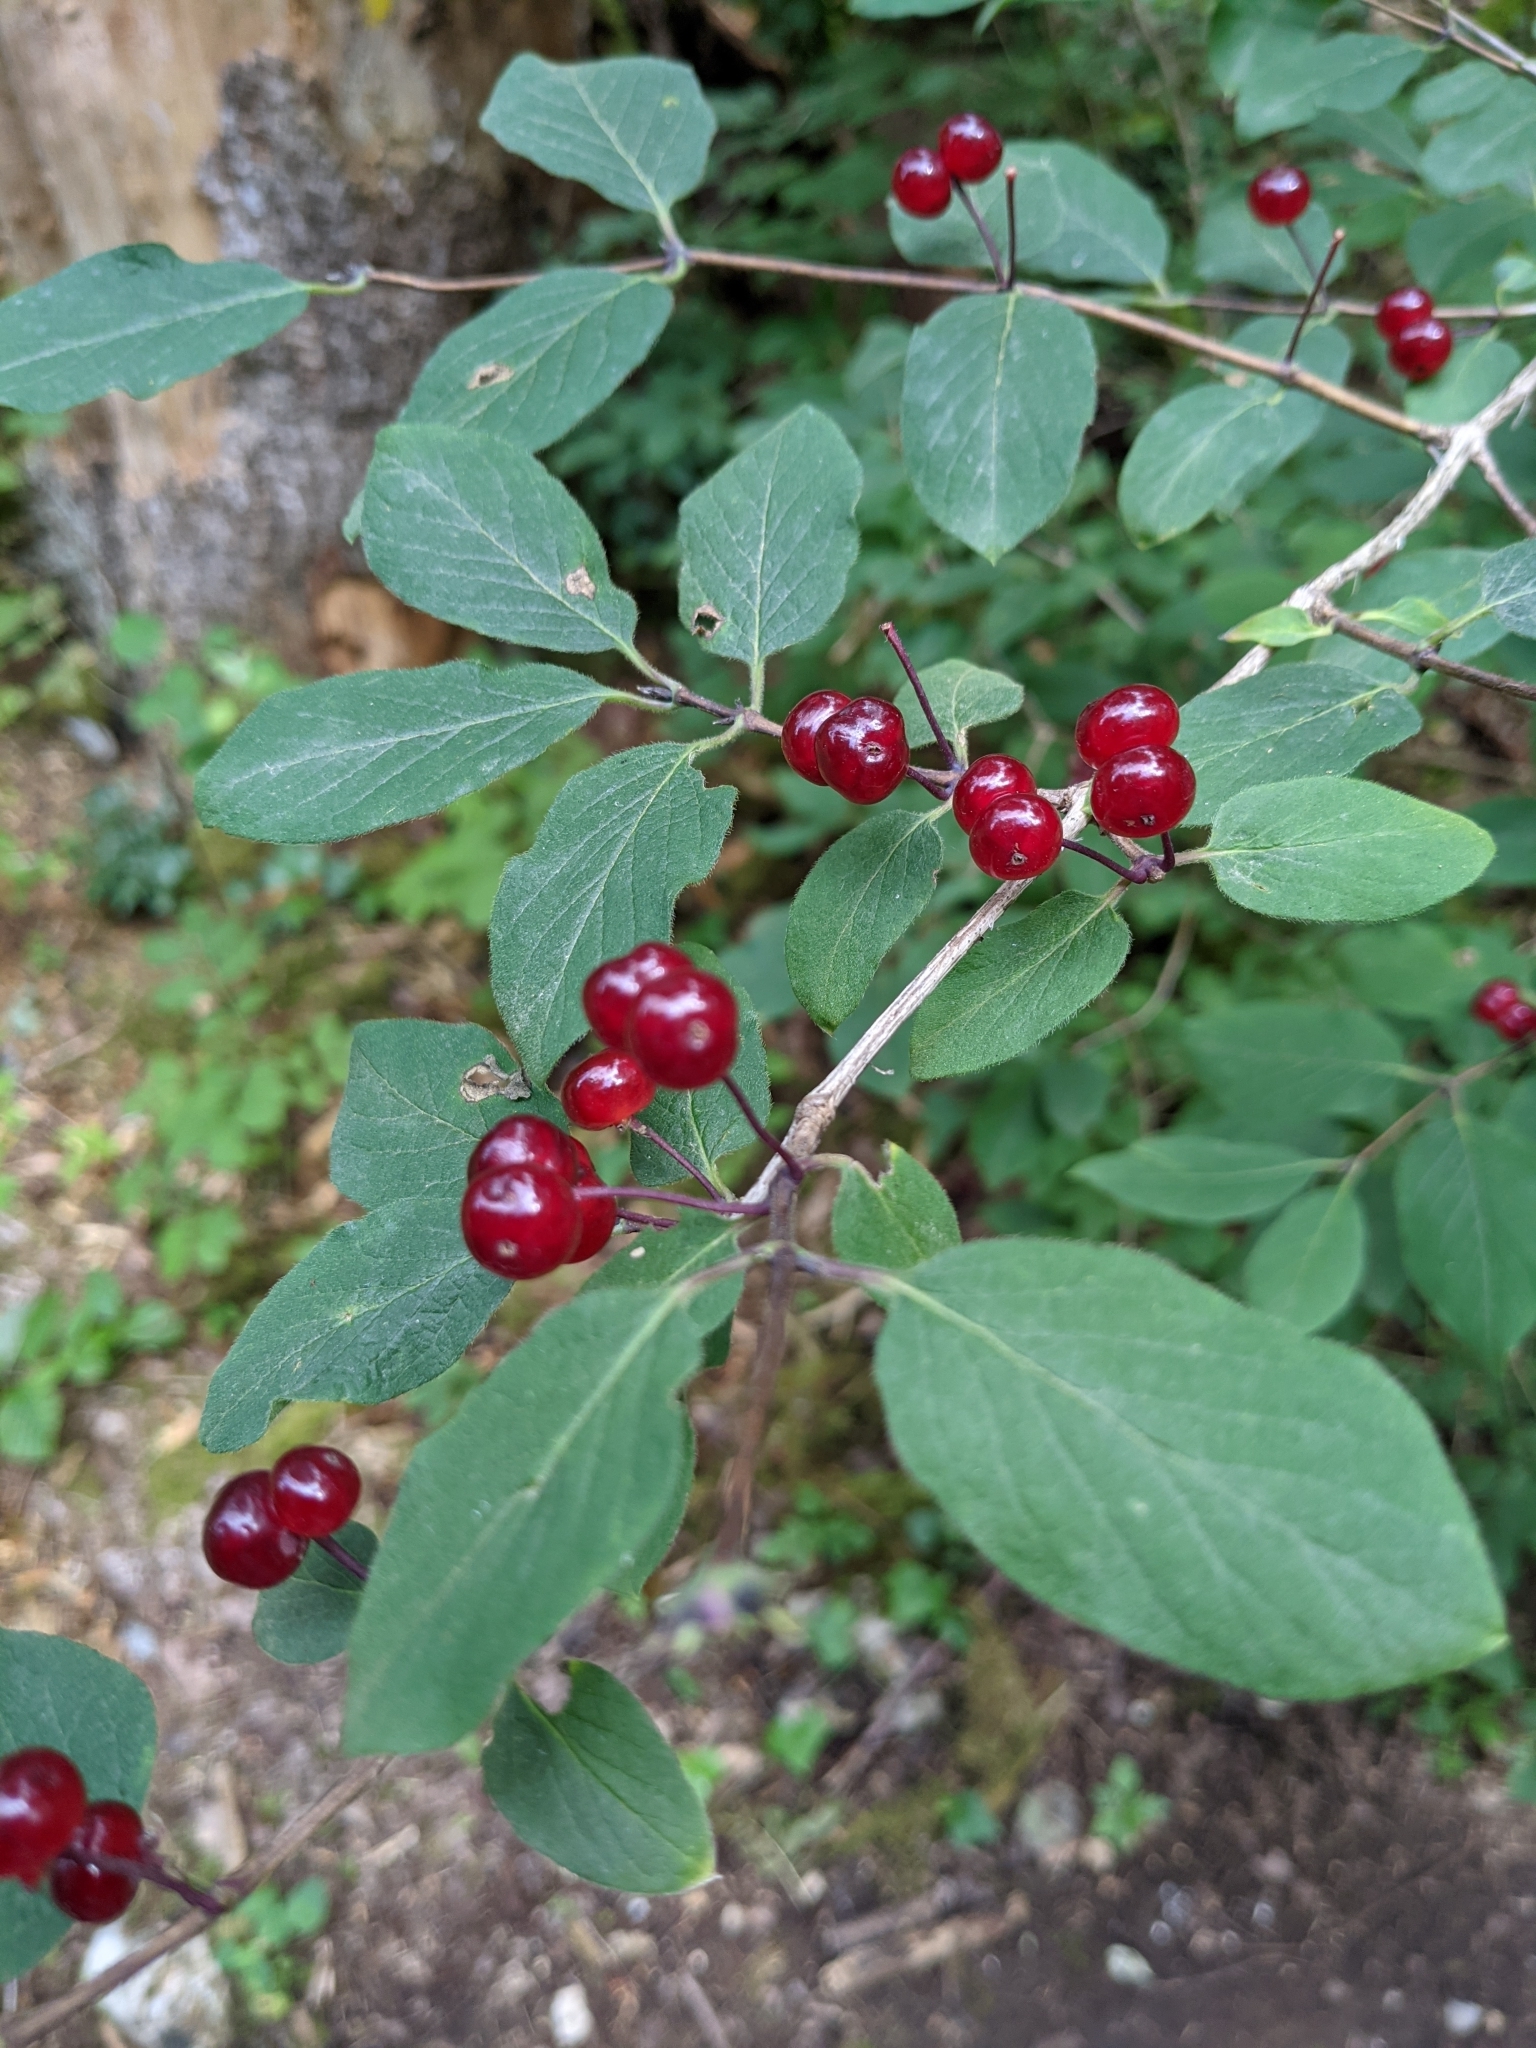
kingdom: Plantae
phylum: Tracheophyta
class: Magnoliopsida
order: Dipsacales
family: Caprifoliaceae
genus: Lonicera
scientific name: Lonicera xylosteum
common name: Fly honeysuckle
